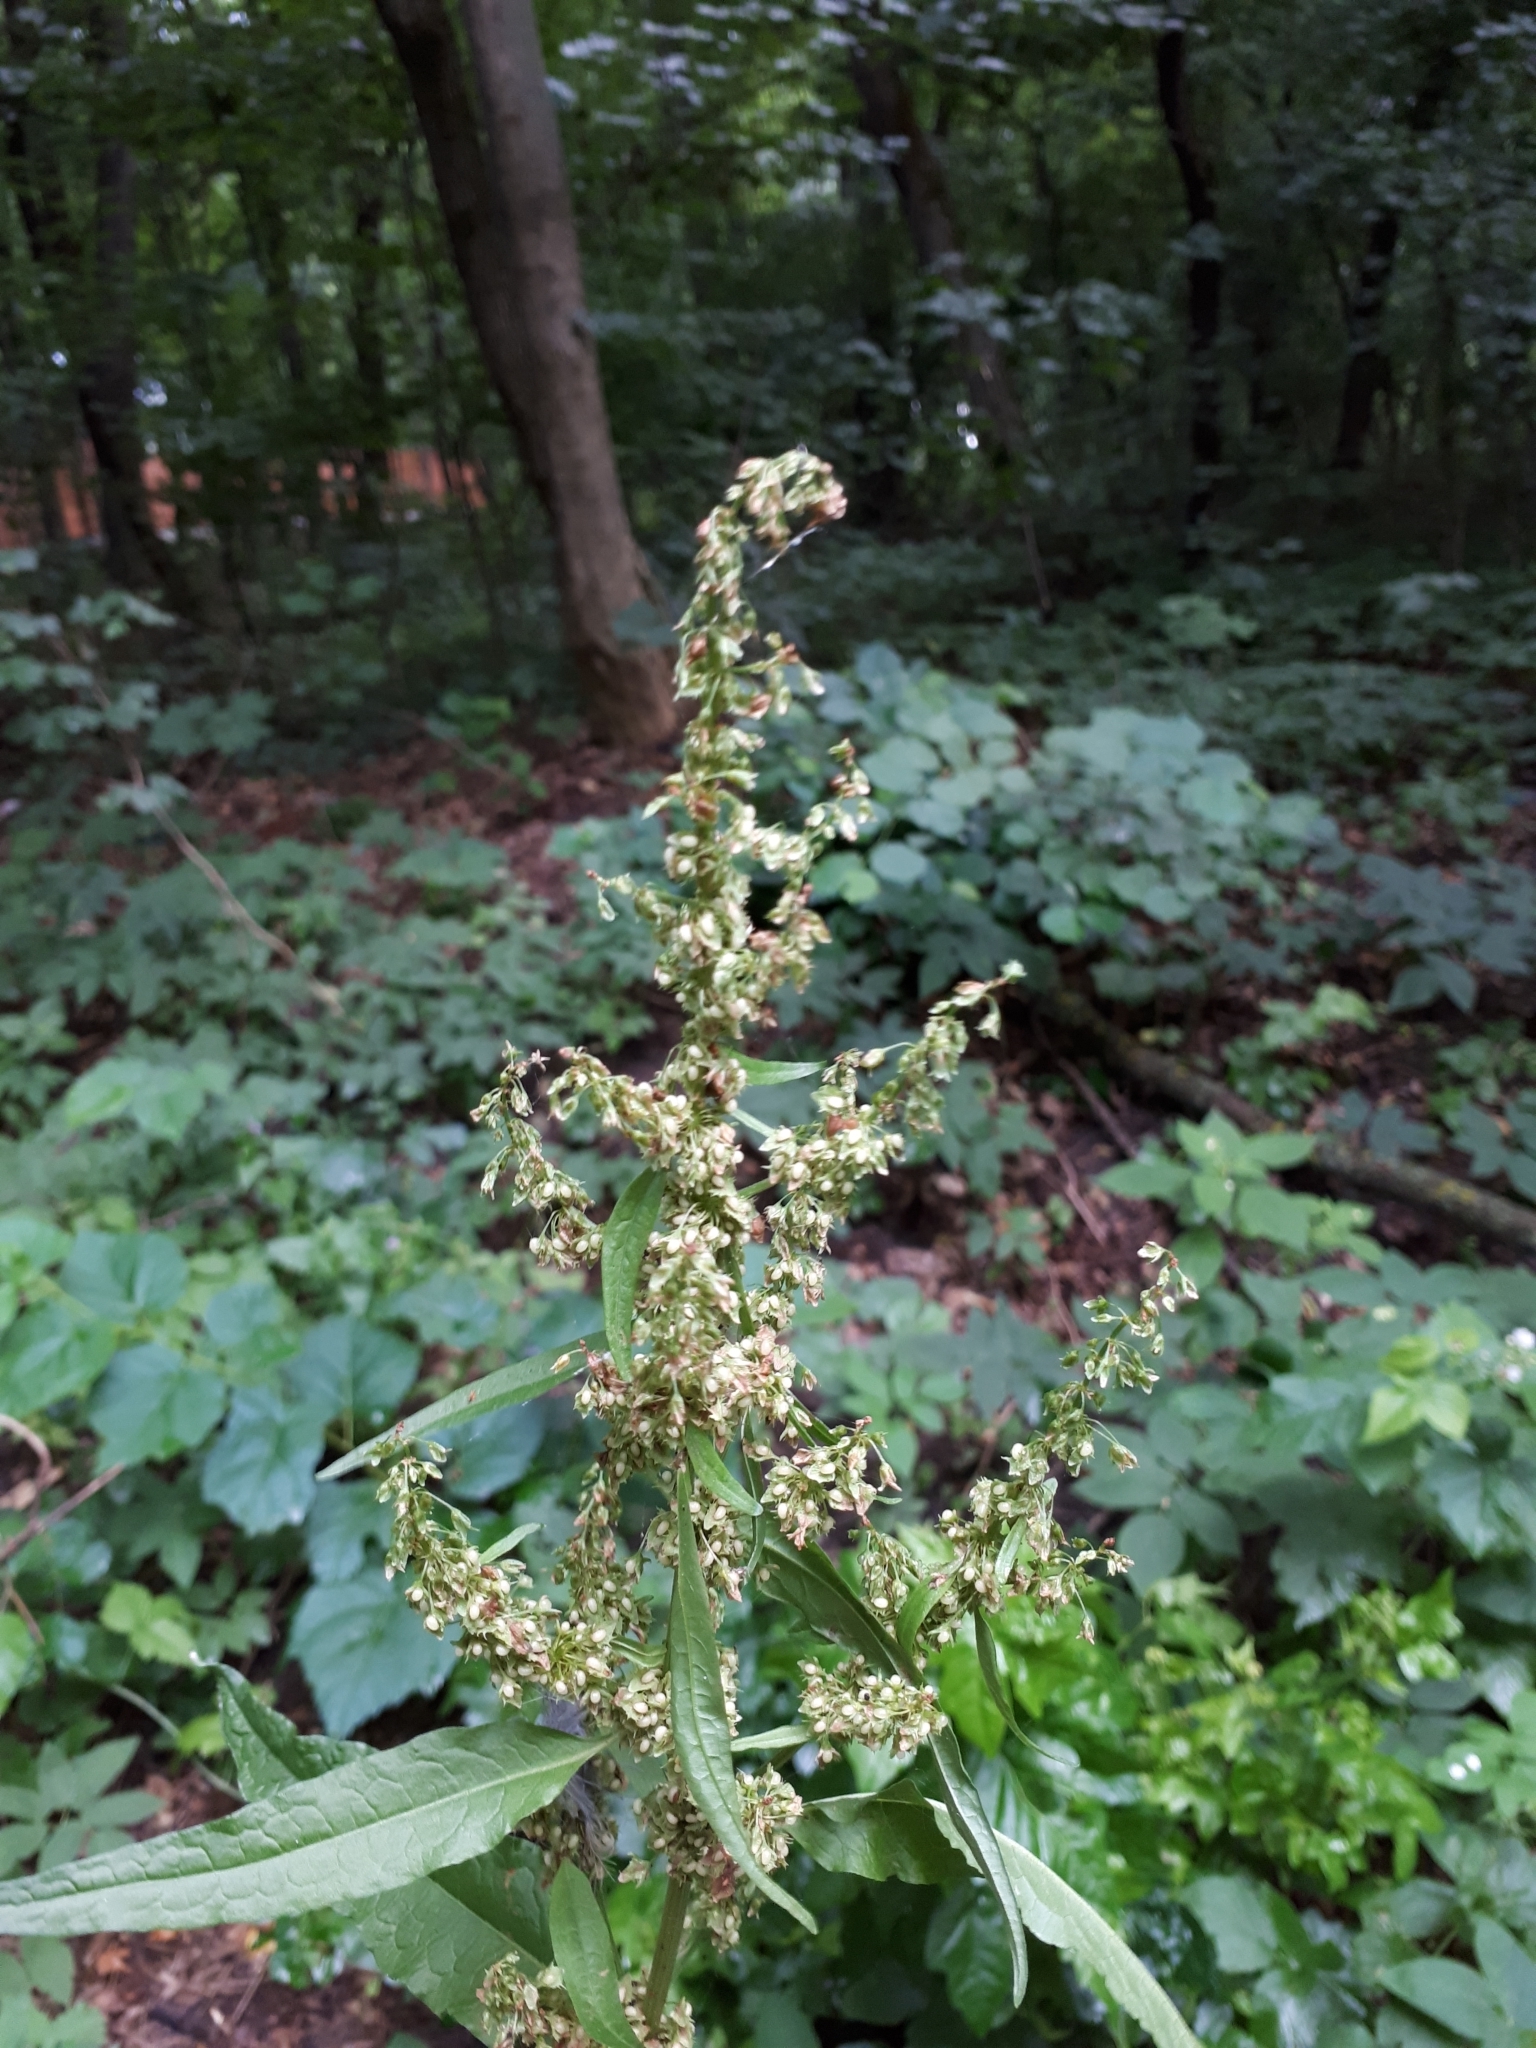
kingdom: Plantae
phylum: Tracheophyta
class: Magnoliopsida
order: Caryophyllales
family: Polygonaceae
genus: Rumex
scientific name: Rumex obtusifolius
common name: Bitter dock
